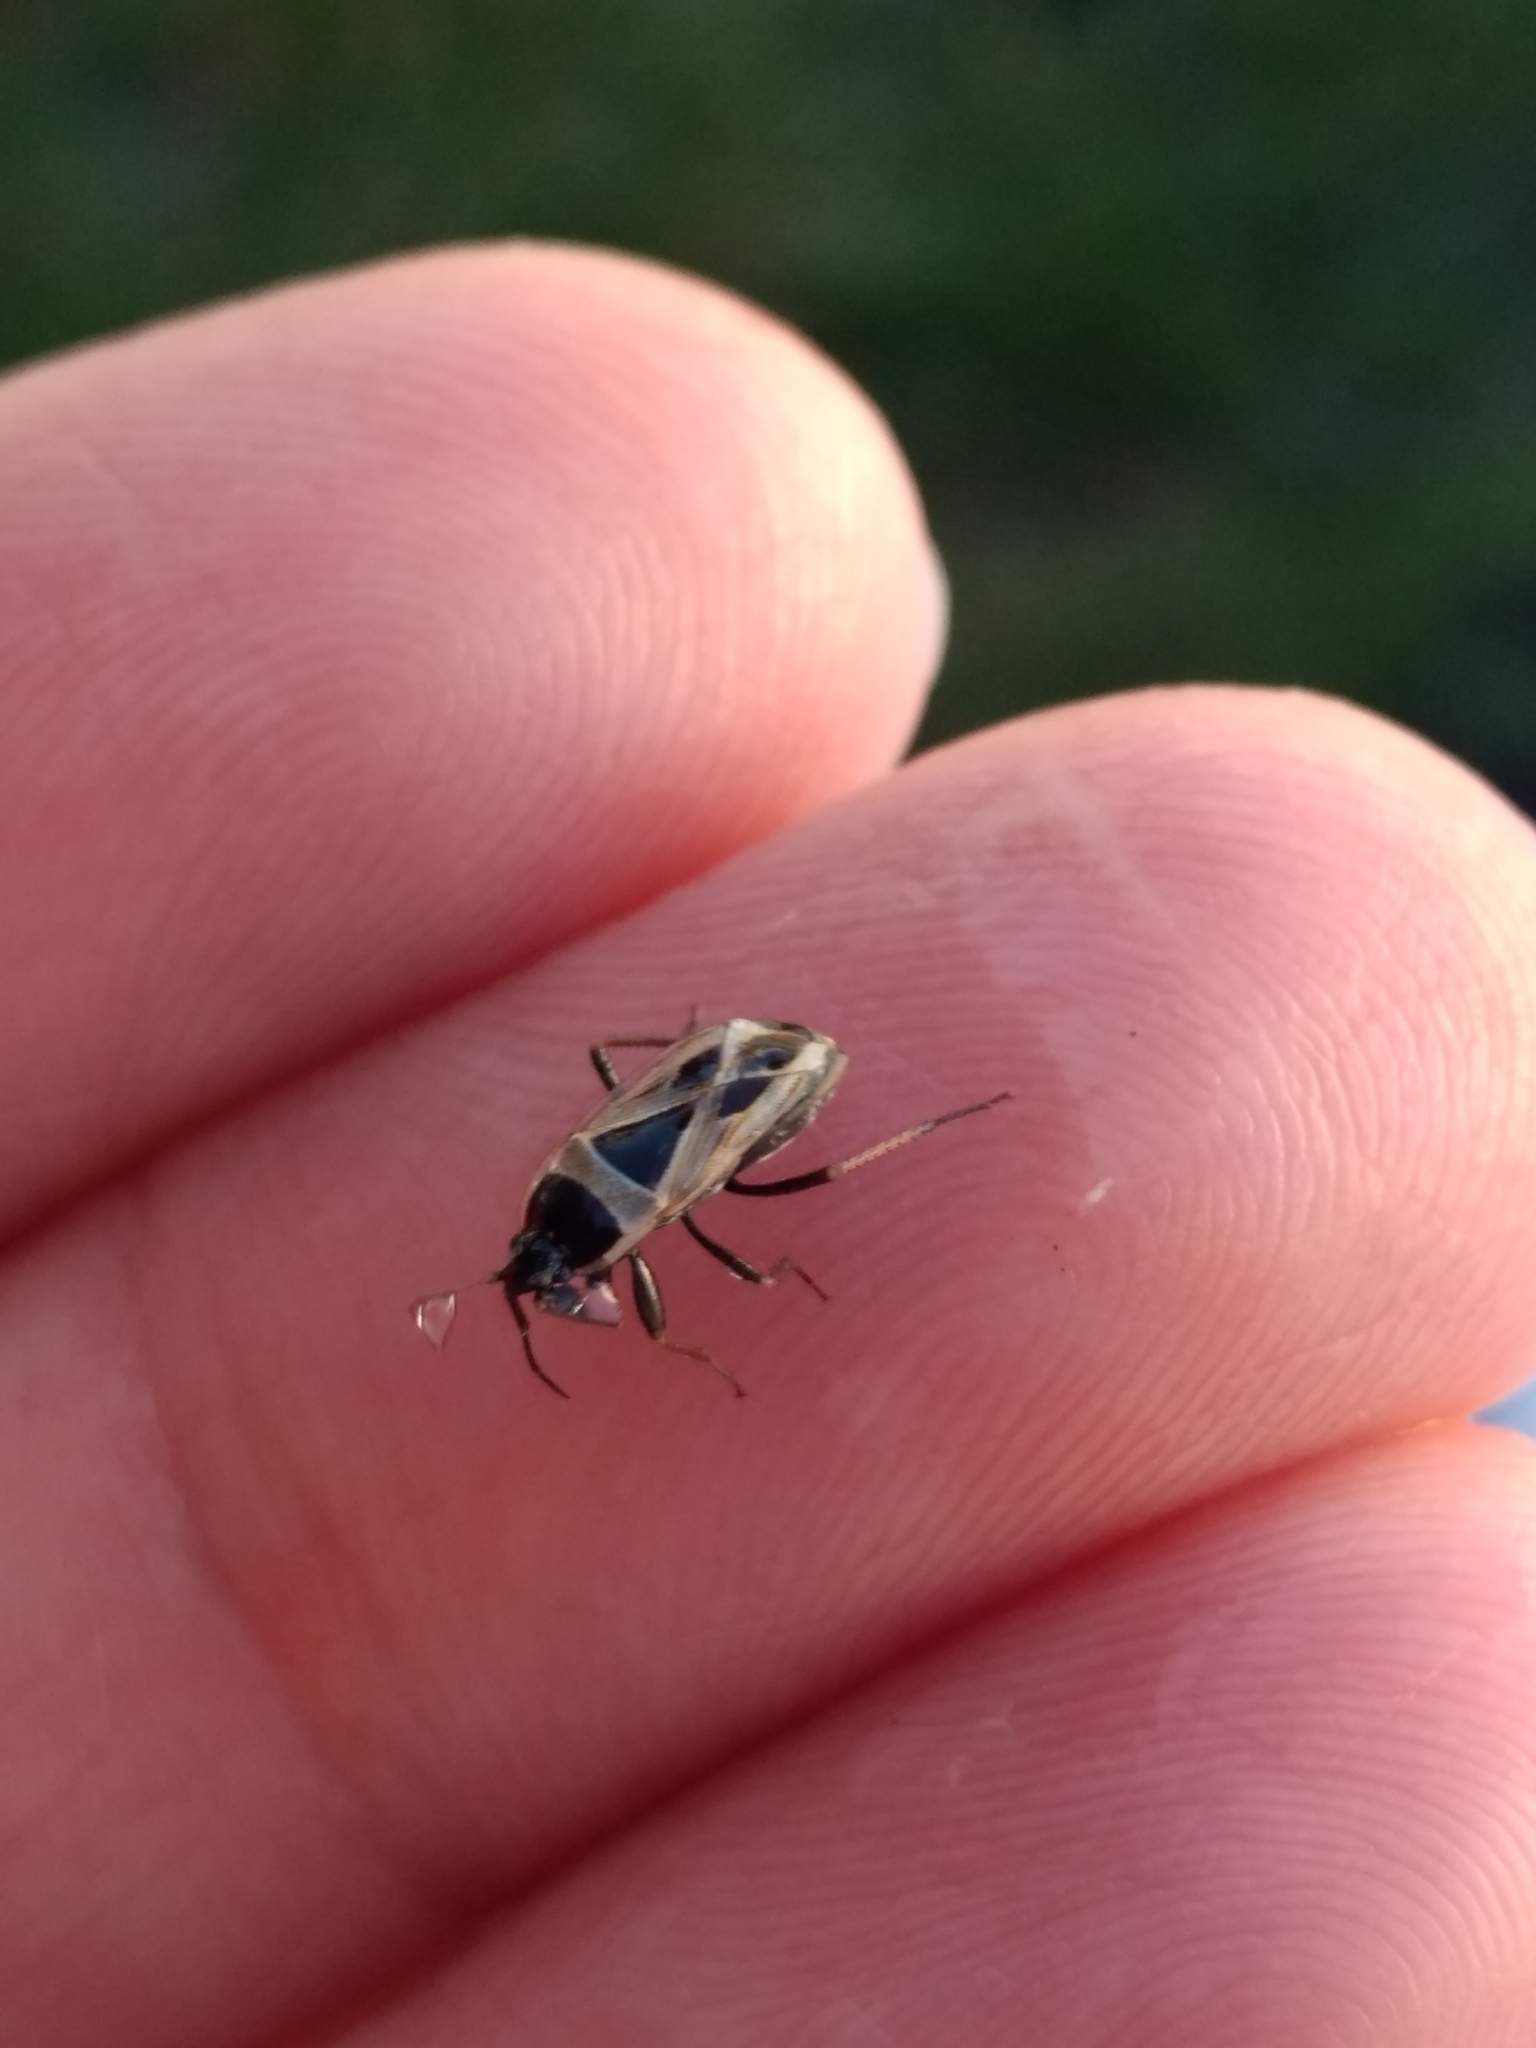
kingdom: Animalia
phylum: Arthropoda
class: Insecta
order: Hemiptera
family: Rhyparochromidae
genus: Xanthochilus
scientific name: Xanthochilus saturnius
